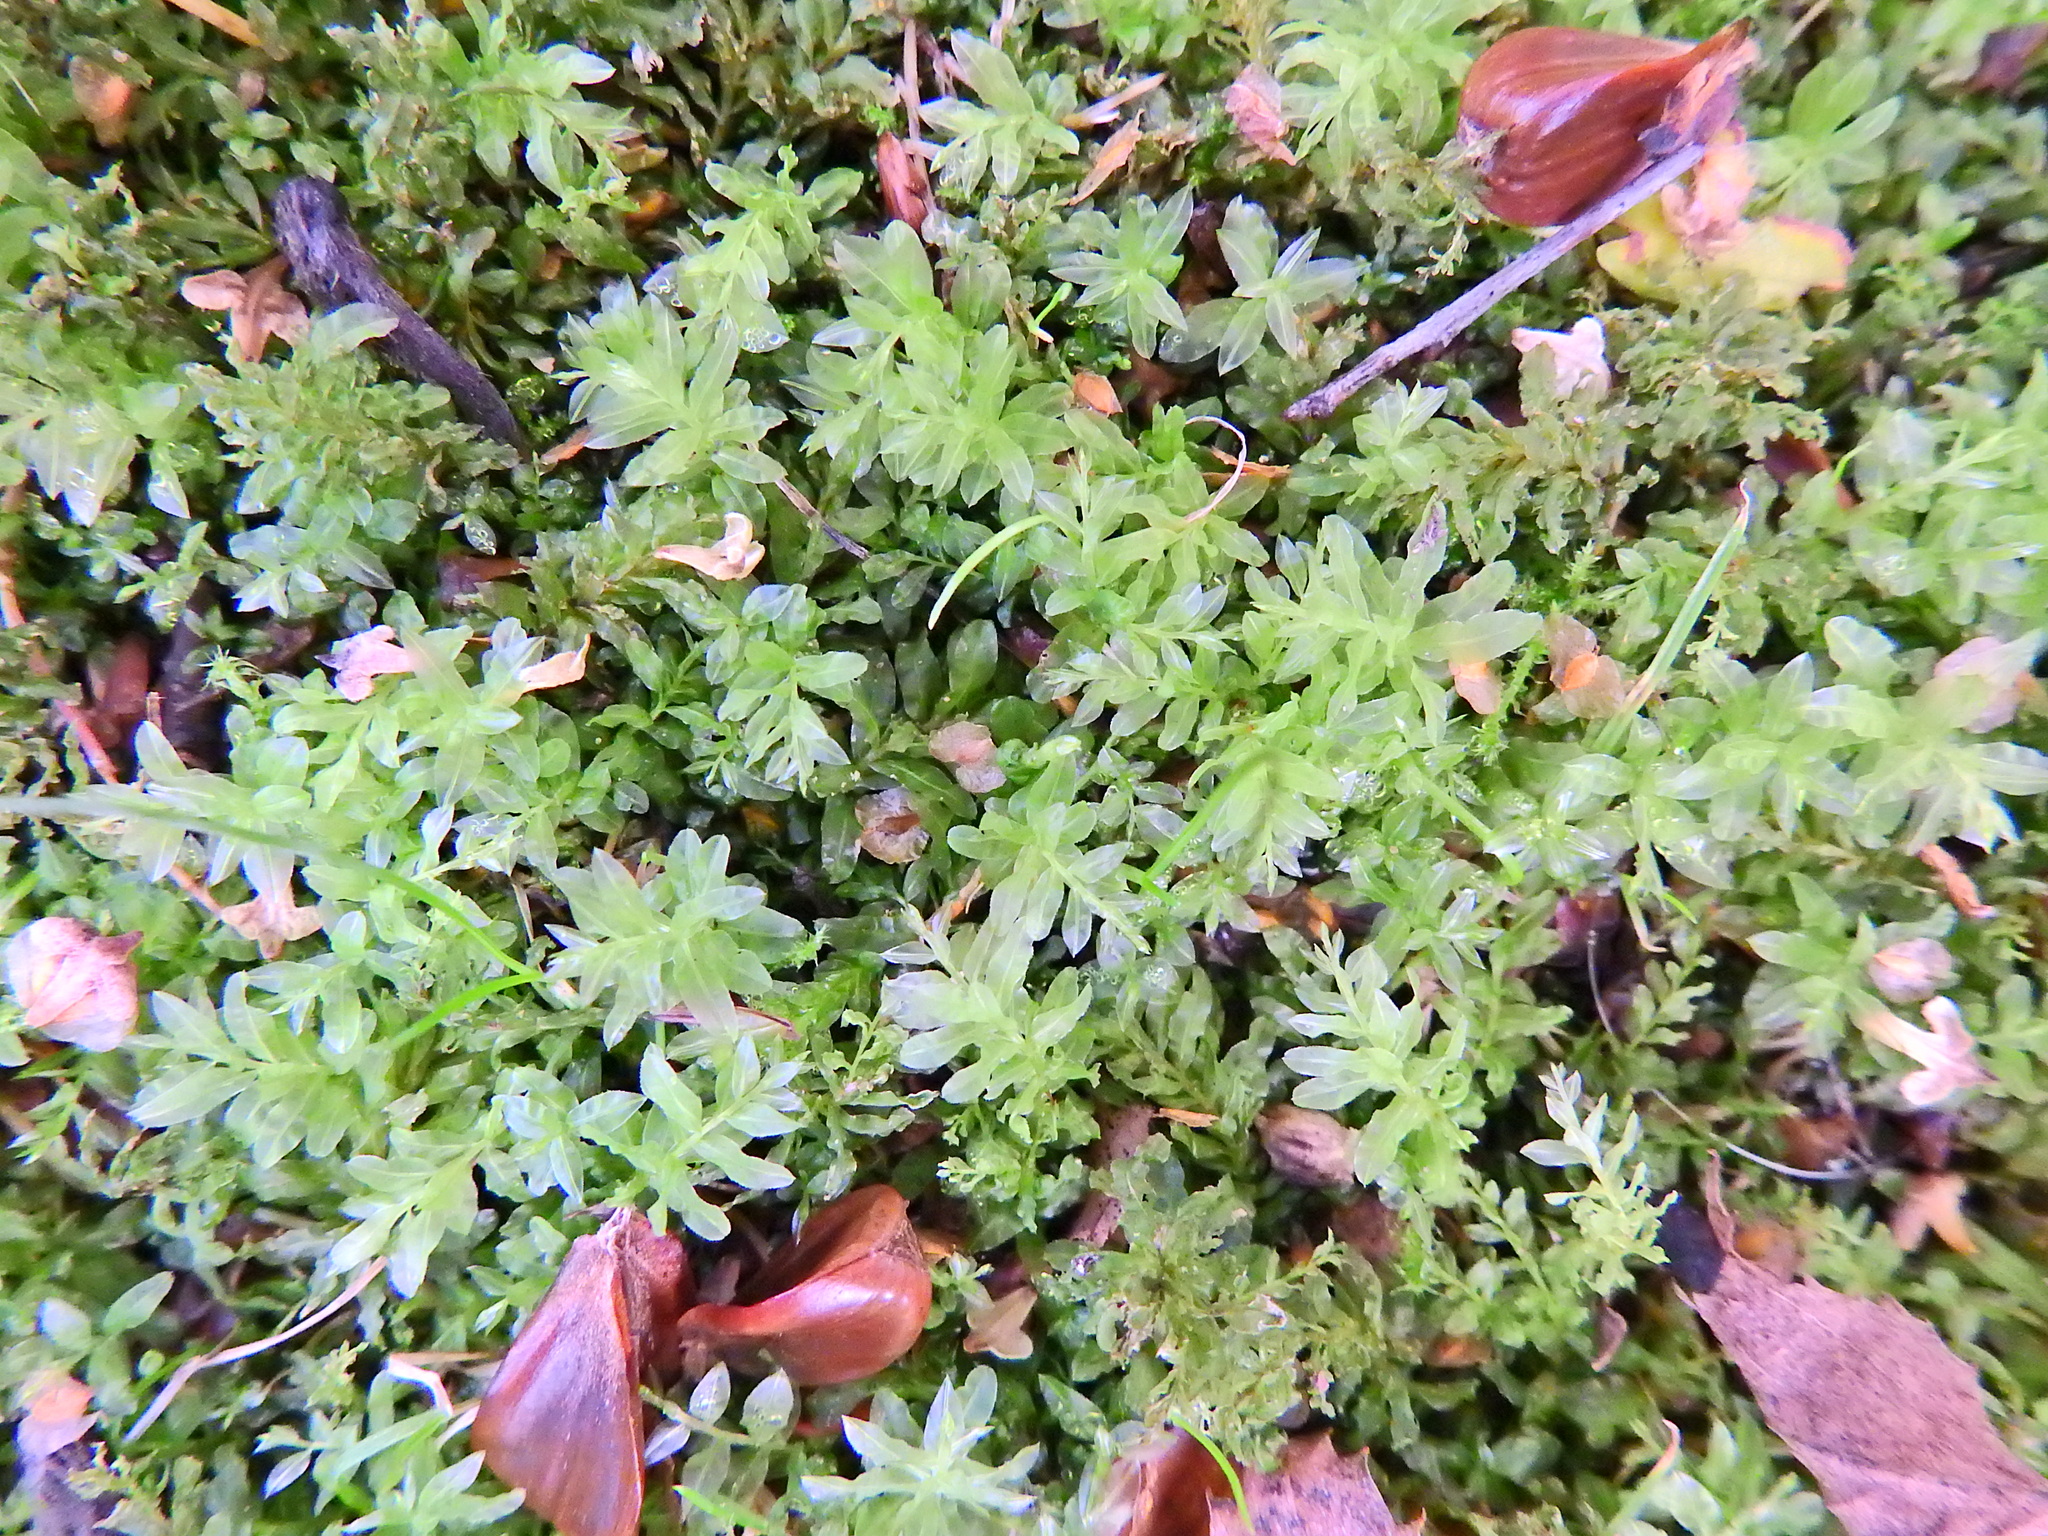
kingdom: Plantae
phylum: Bryophyta
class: Bryopsida
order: Bryales
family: Mniaceae
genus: Plagiomnium
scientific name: Plagiomnium undulatum
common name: Hart's-tongue thyme-moss
